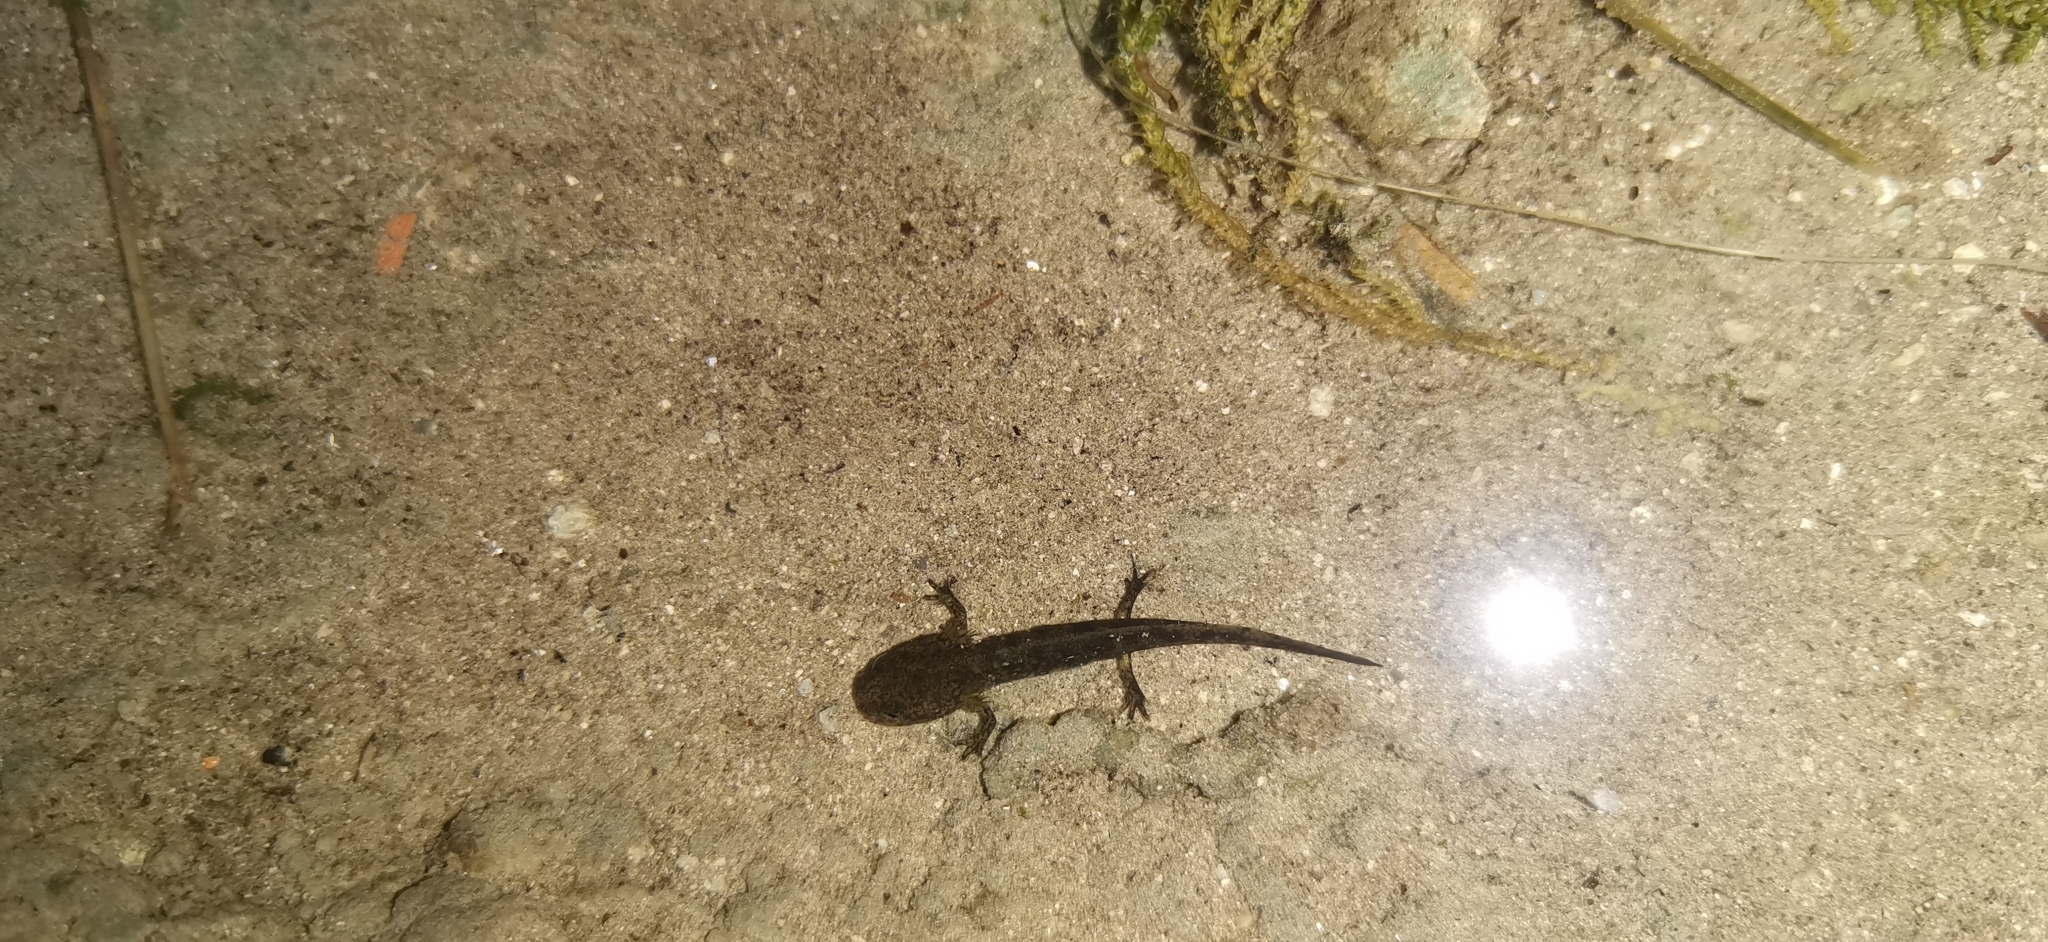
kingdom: Animalia
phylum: Chordata
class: Amphibia
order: Caudata
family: Salamandridae
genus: Salamandra
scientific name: Salamandra salamandra
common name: Fire salamander
